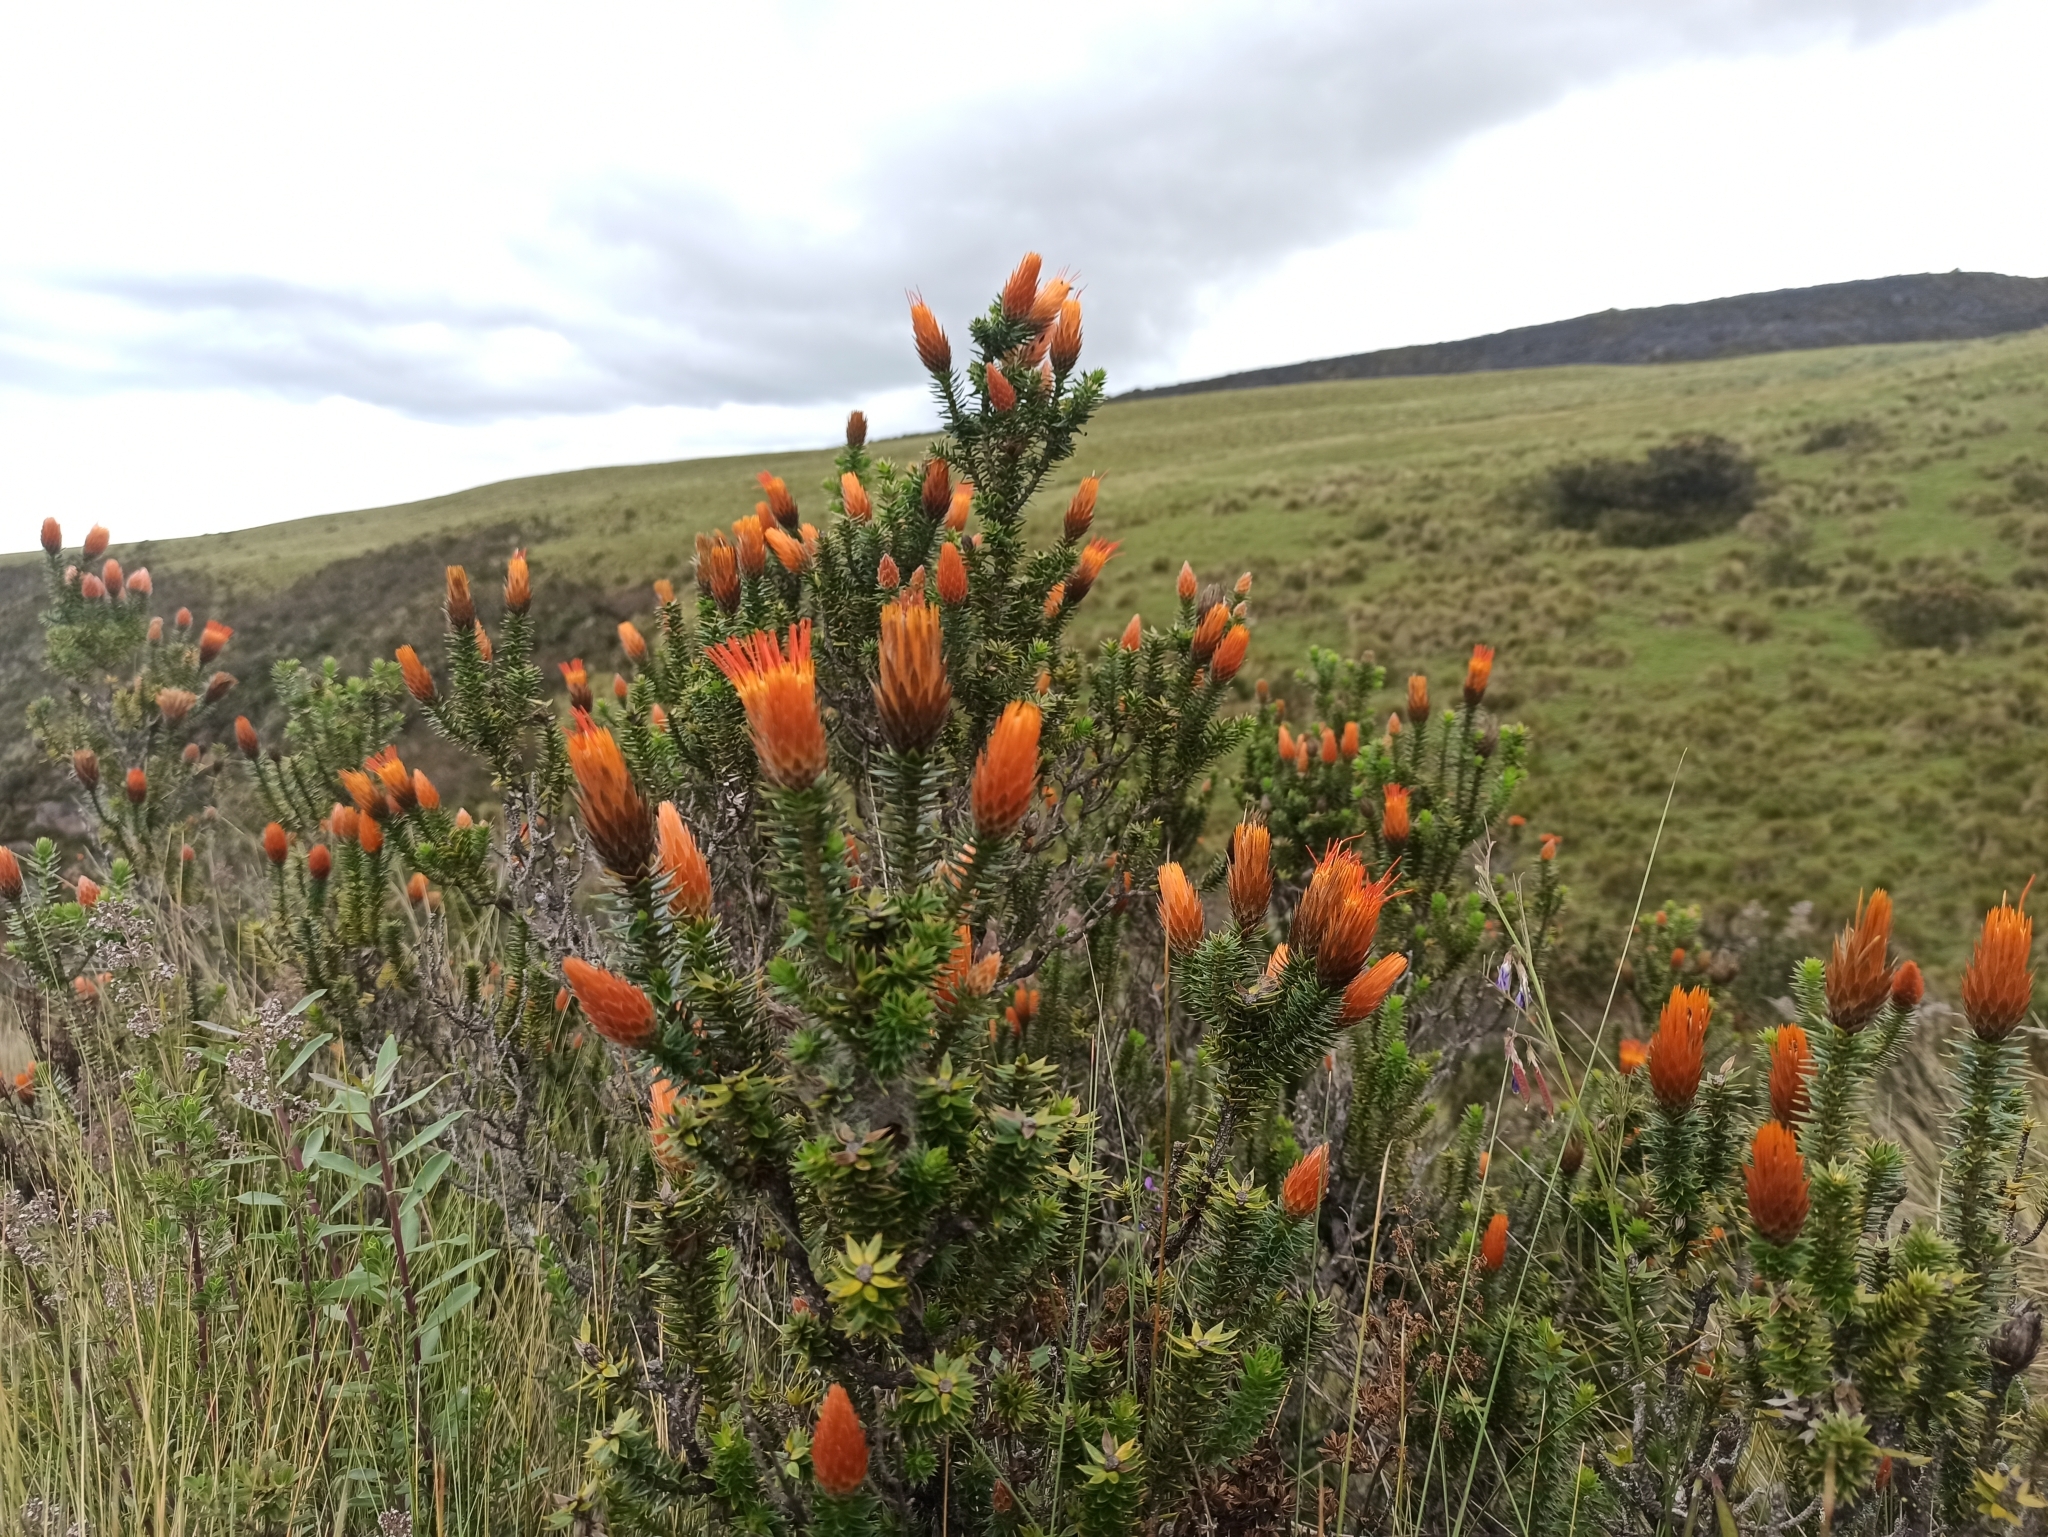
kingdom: Plantae
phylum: Tracheophyta
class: Magnoliopsida
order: Asterales
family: Asteraceae
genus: Chuquiraga
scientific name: Chuquiraga jussieui
